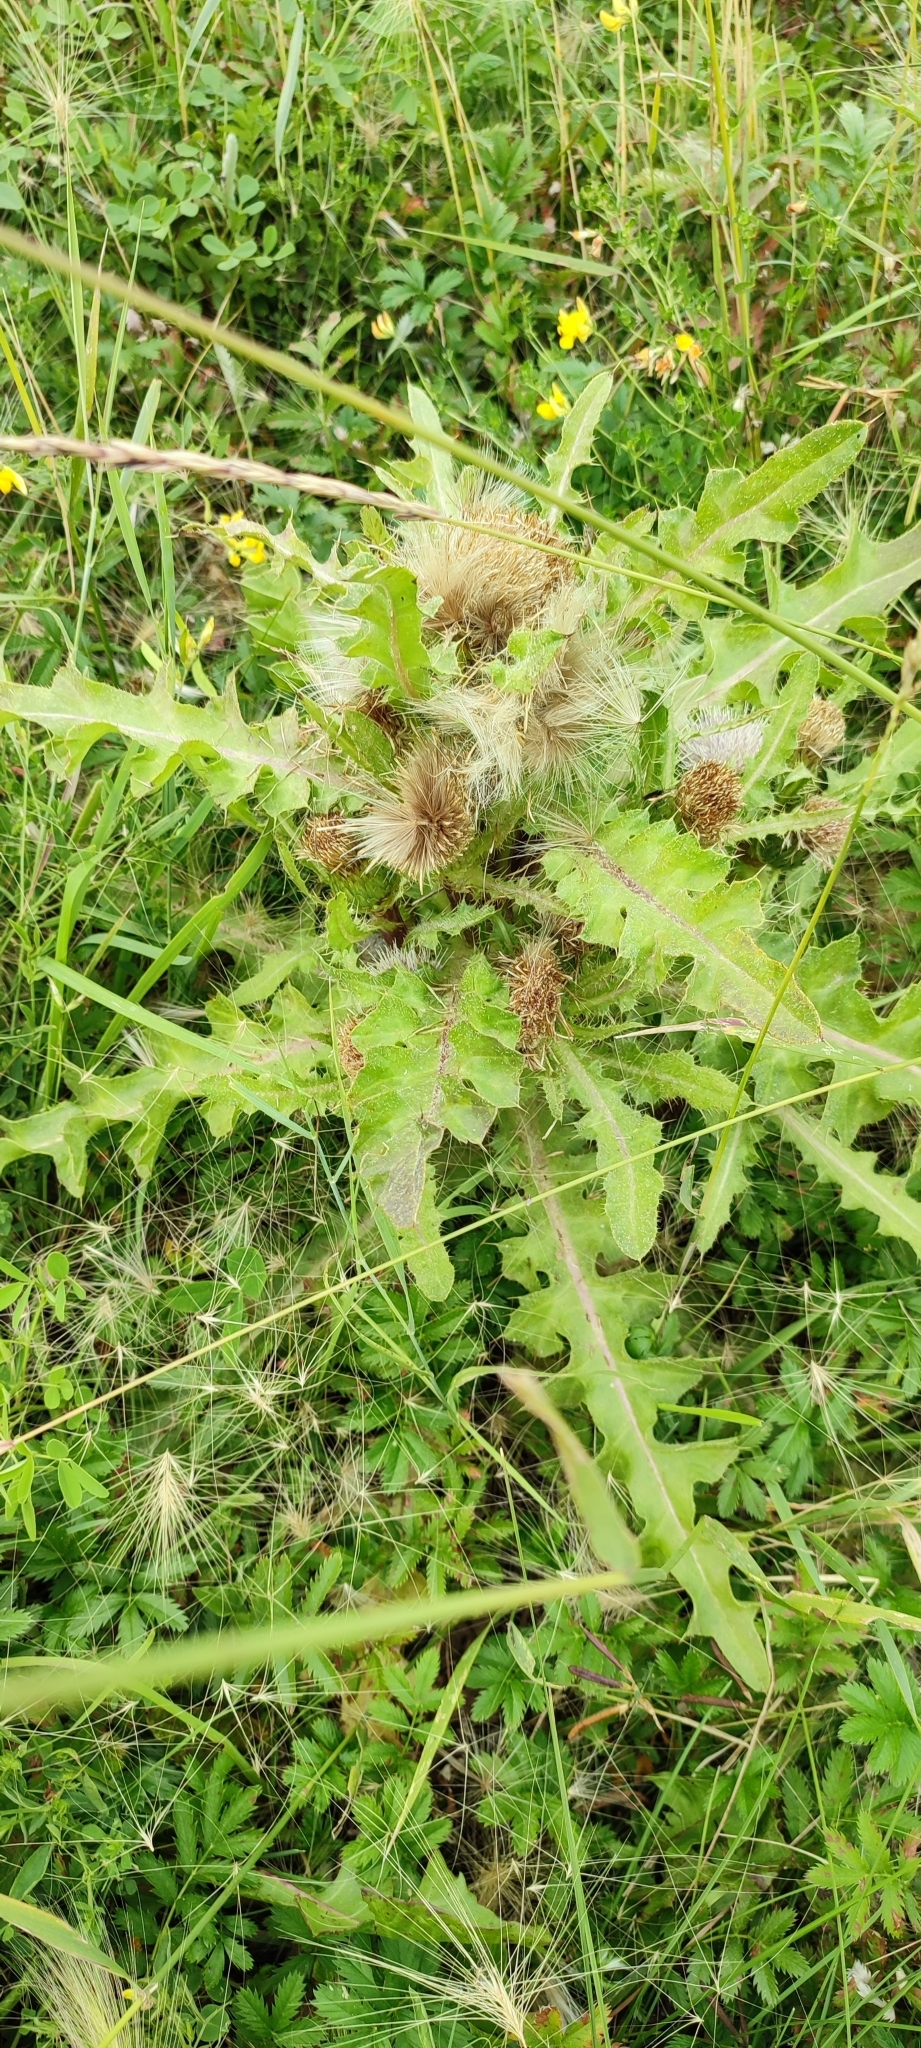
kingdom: Plantae
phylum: Tracheophyta
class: Magnoliopsida
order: Asterales
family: Asteraceae
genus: Cirsium
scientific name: Cirsium esculentum
